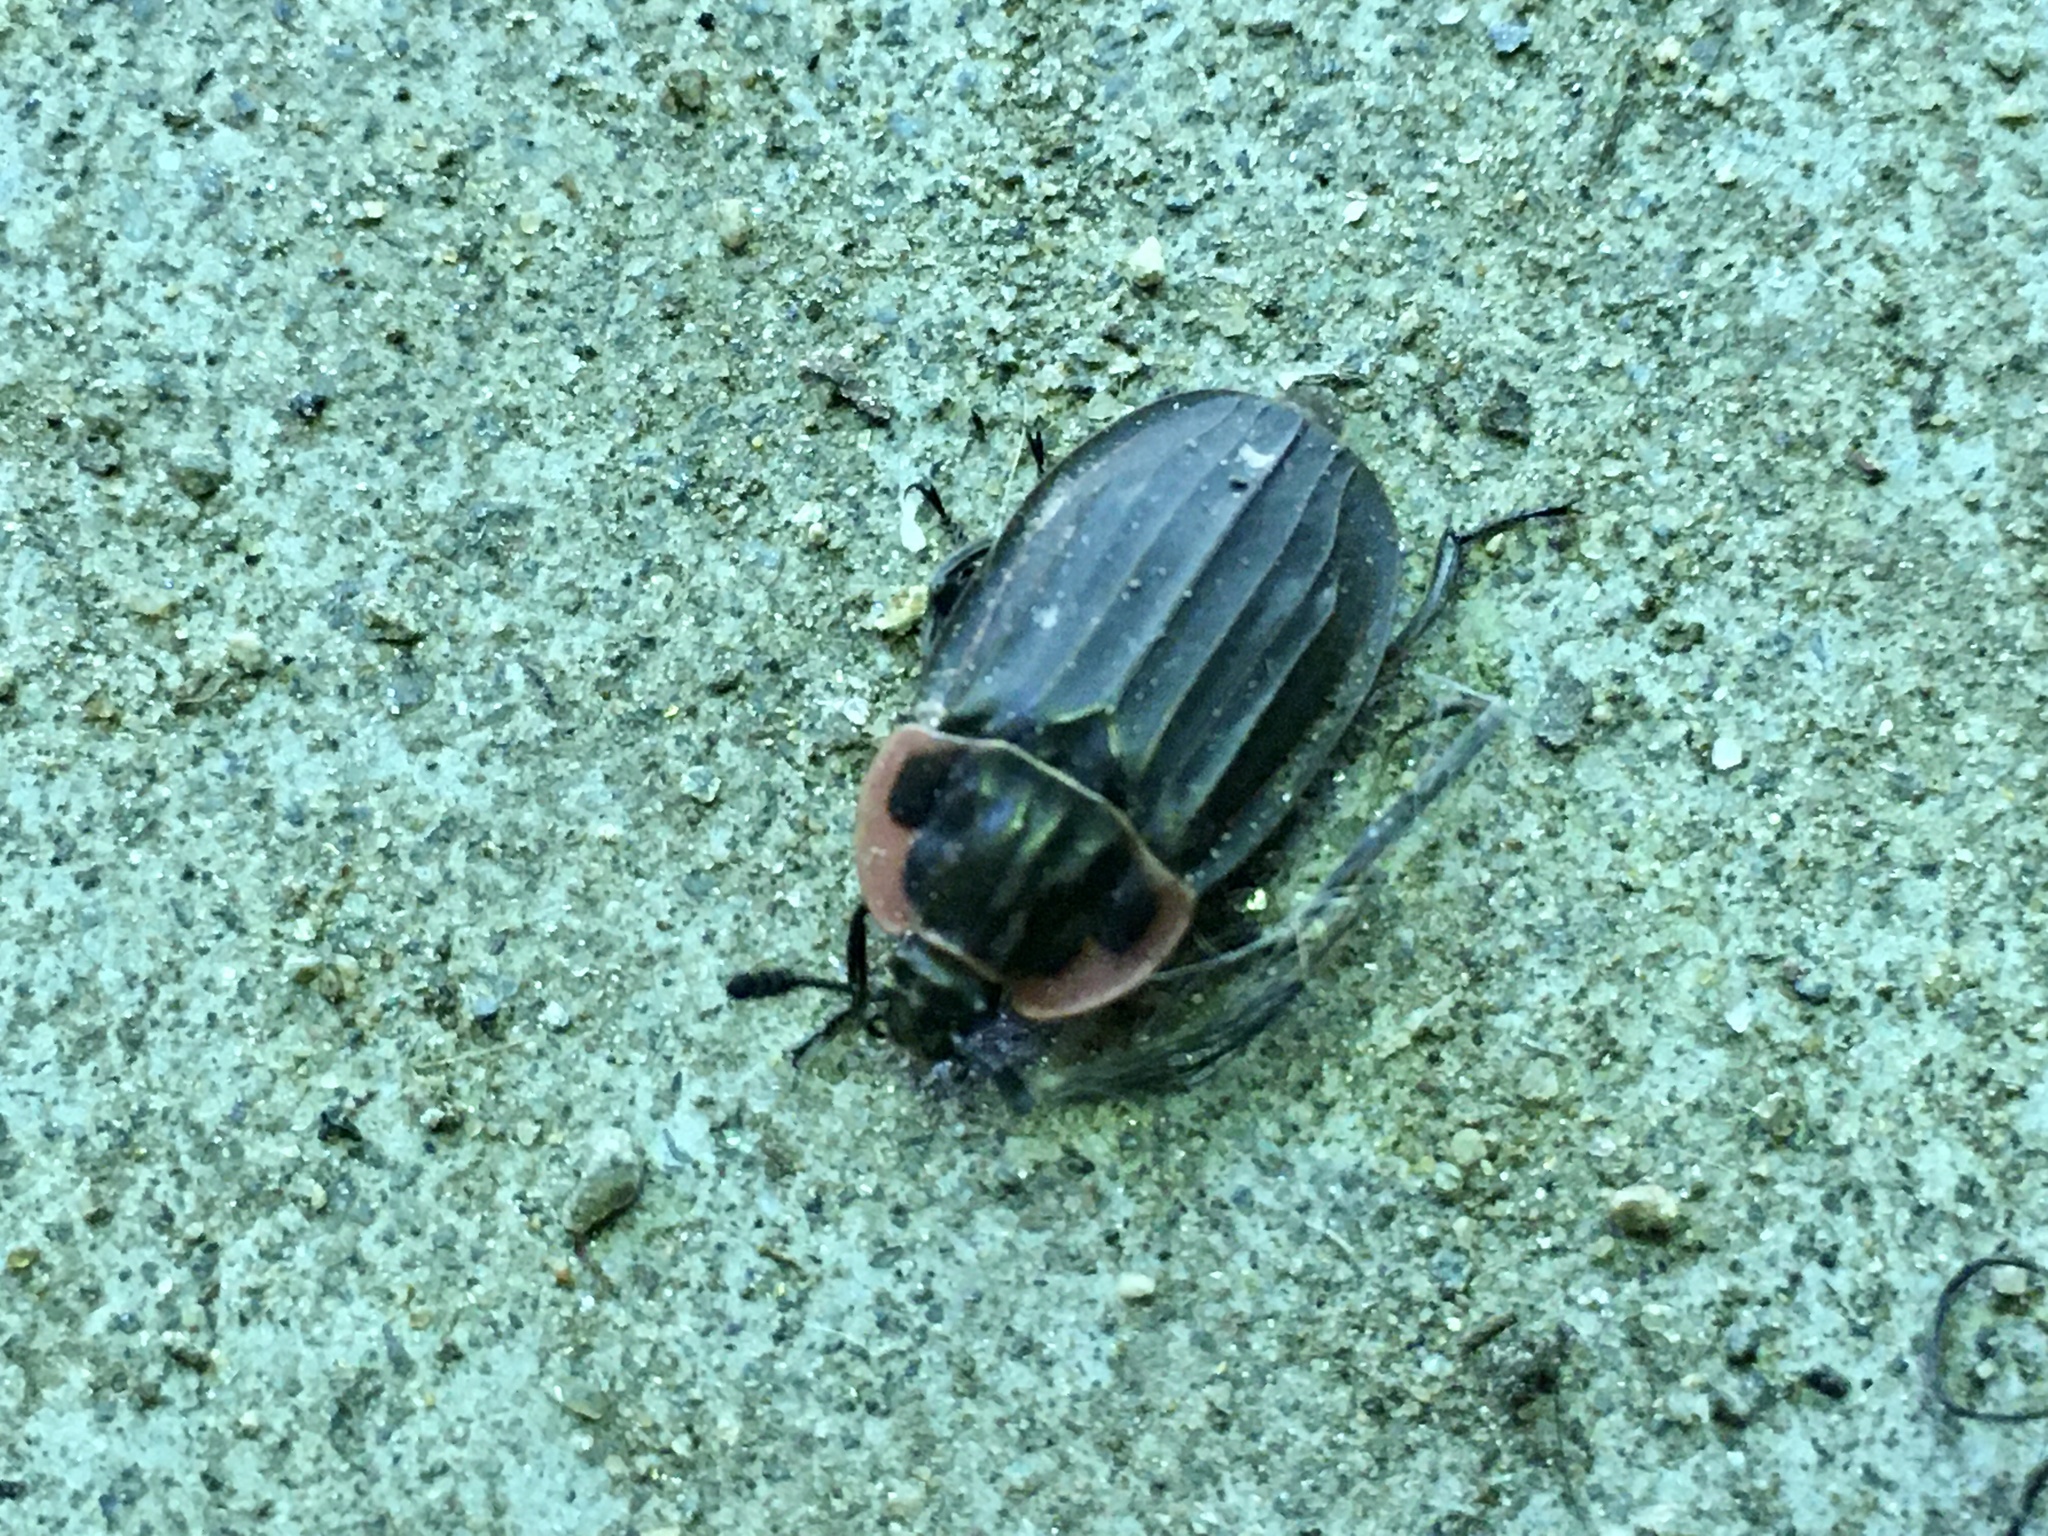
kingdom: Animalia
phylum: Arthropoda
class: Insecta
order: Coleoptera
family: Staphylinidae
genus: Oiceoptoma
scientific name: Oiceoptoma noveboracense
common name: Margined carrion beetle
